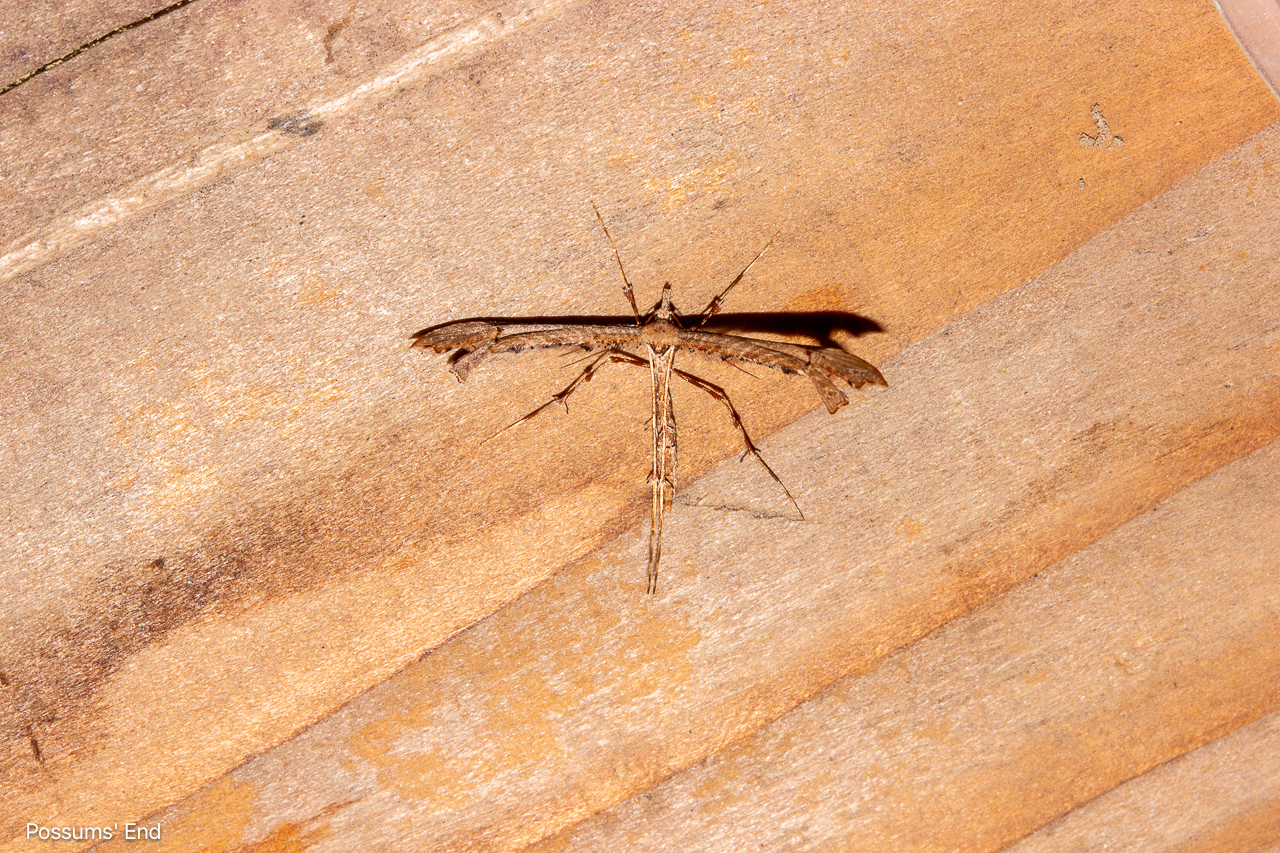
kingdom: Animalia
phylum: Arthropoda
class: Insecta
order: Lepidoptera
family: Pterophoridae
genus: Amblyptilia
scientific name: Amblyptilia repletalis
